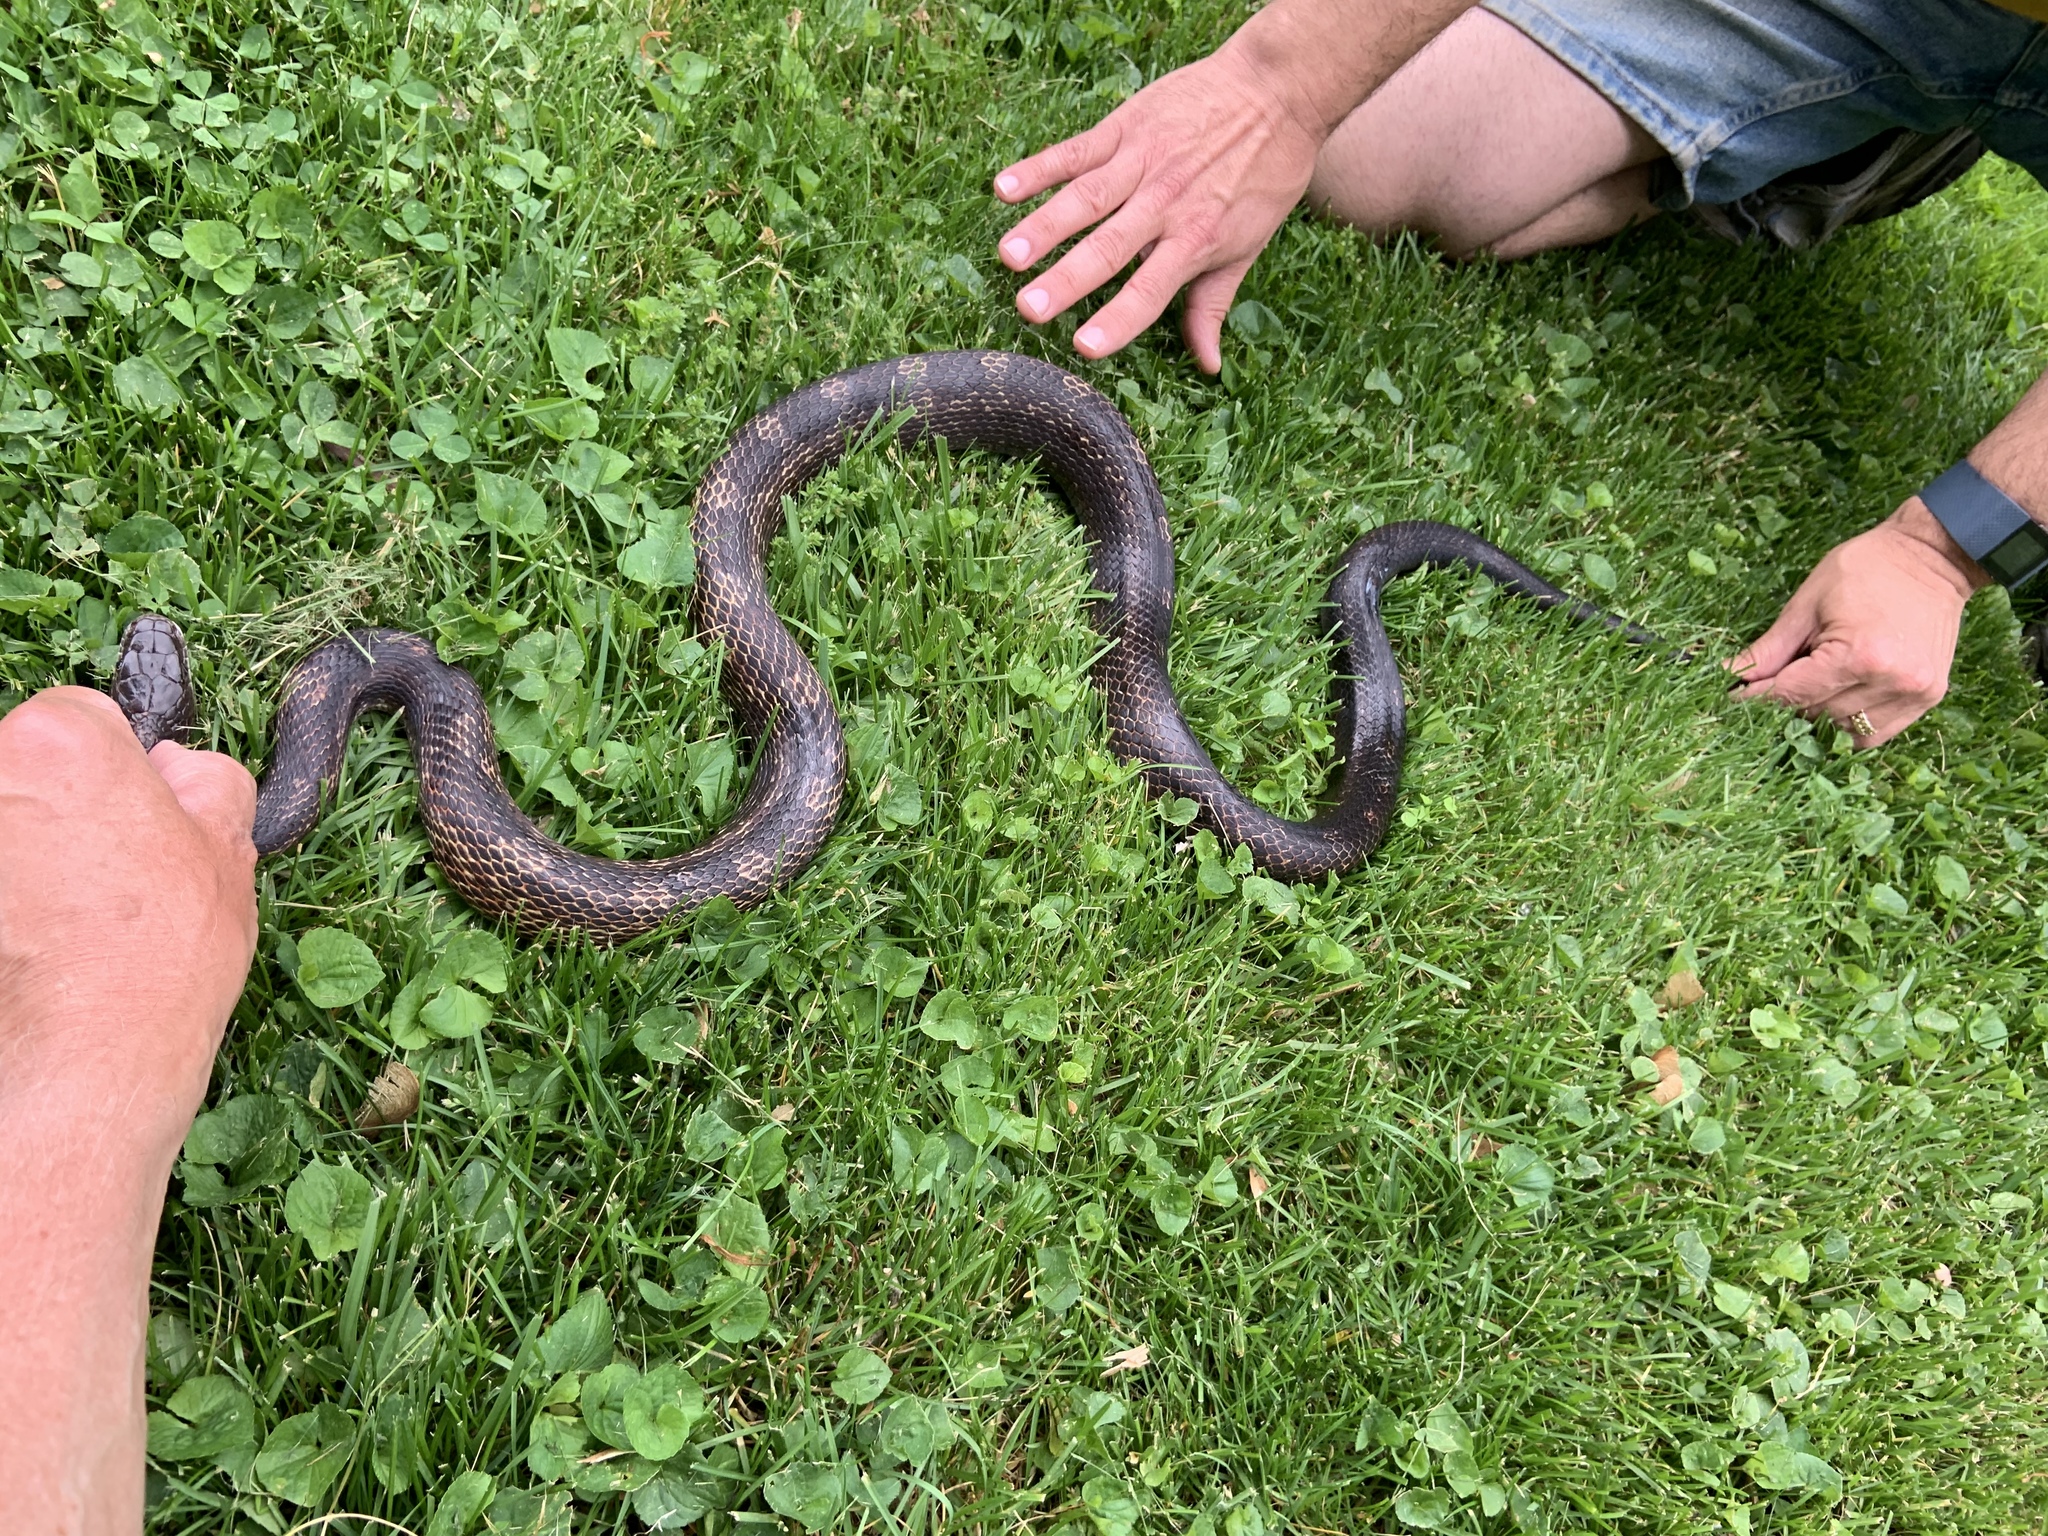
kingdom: Animalia
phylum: Chordata
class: Squamata
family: Colubridae
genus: Pantherophis
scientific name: Pantherophis spiloides
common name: Gray rat snake
